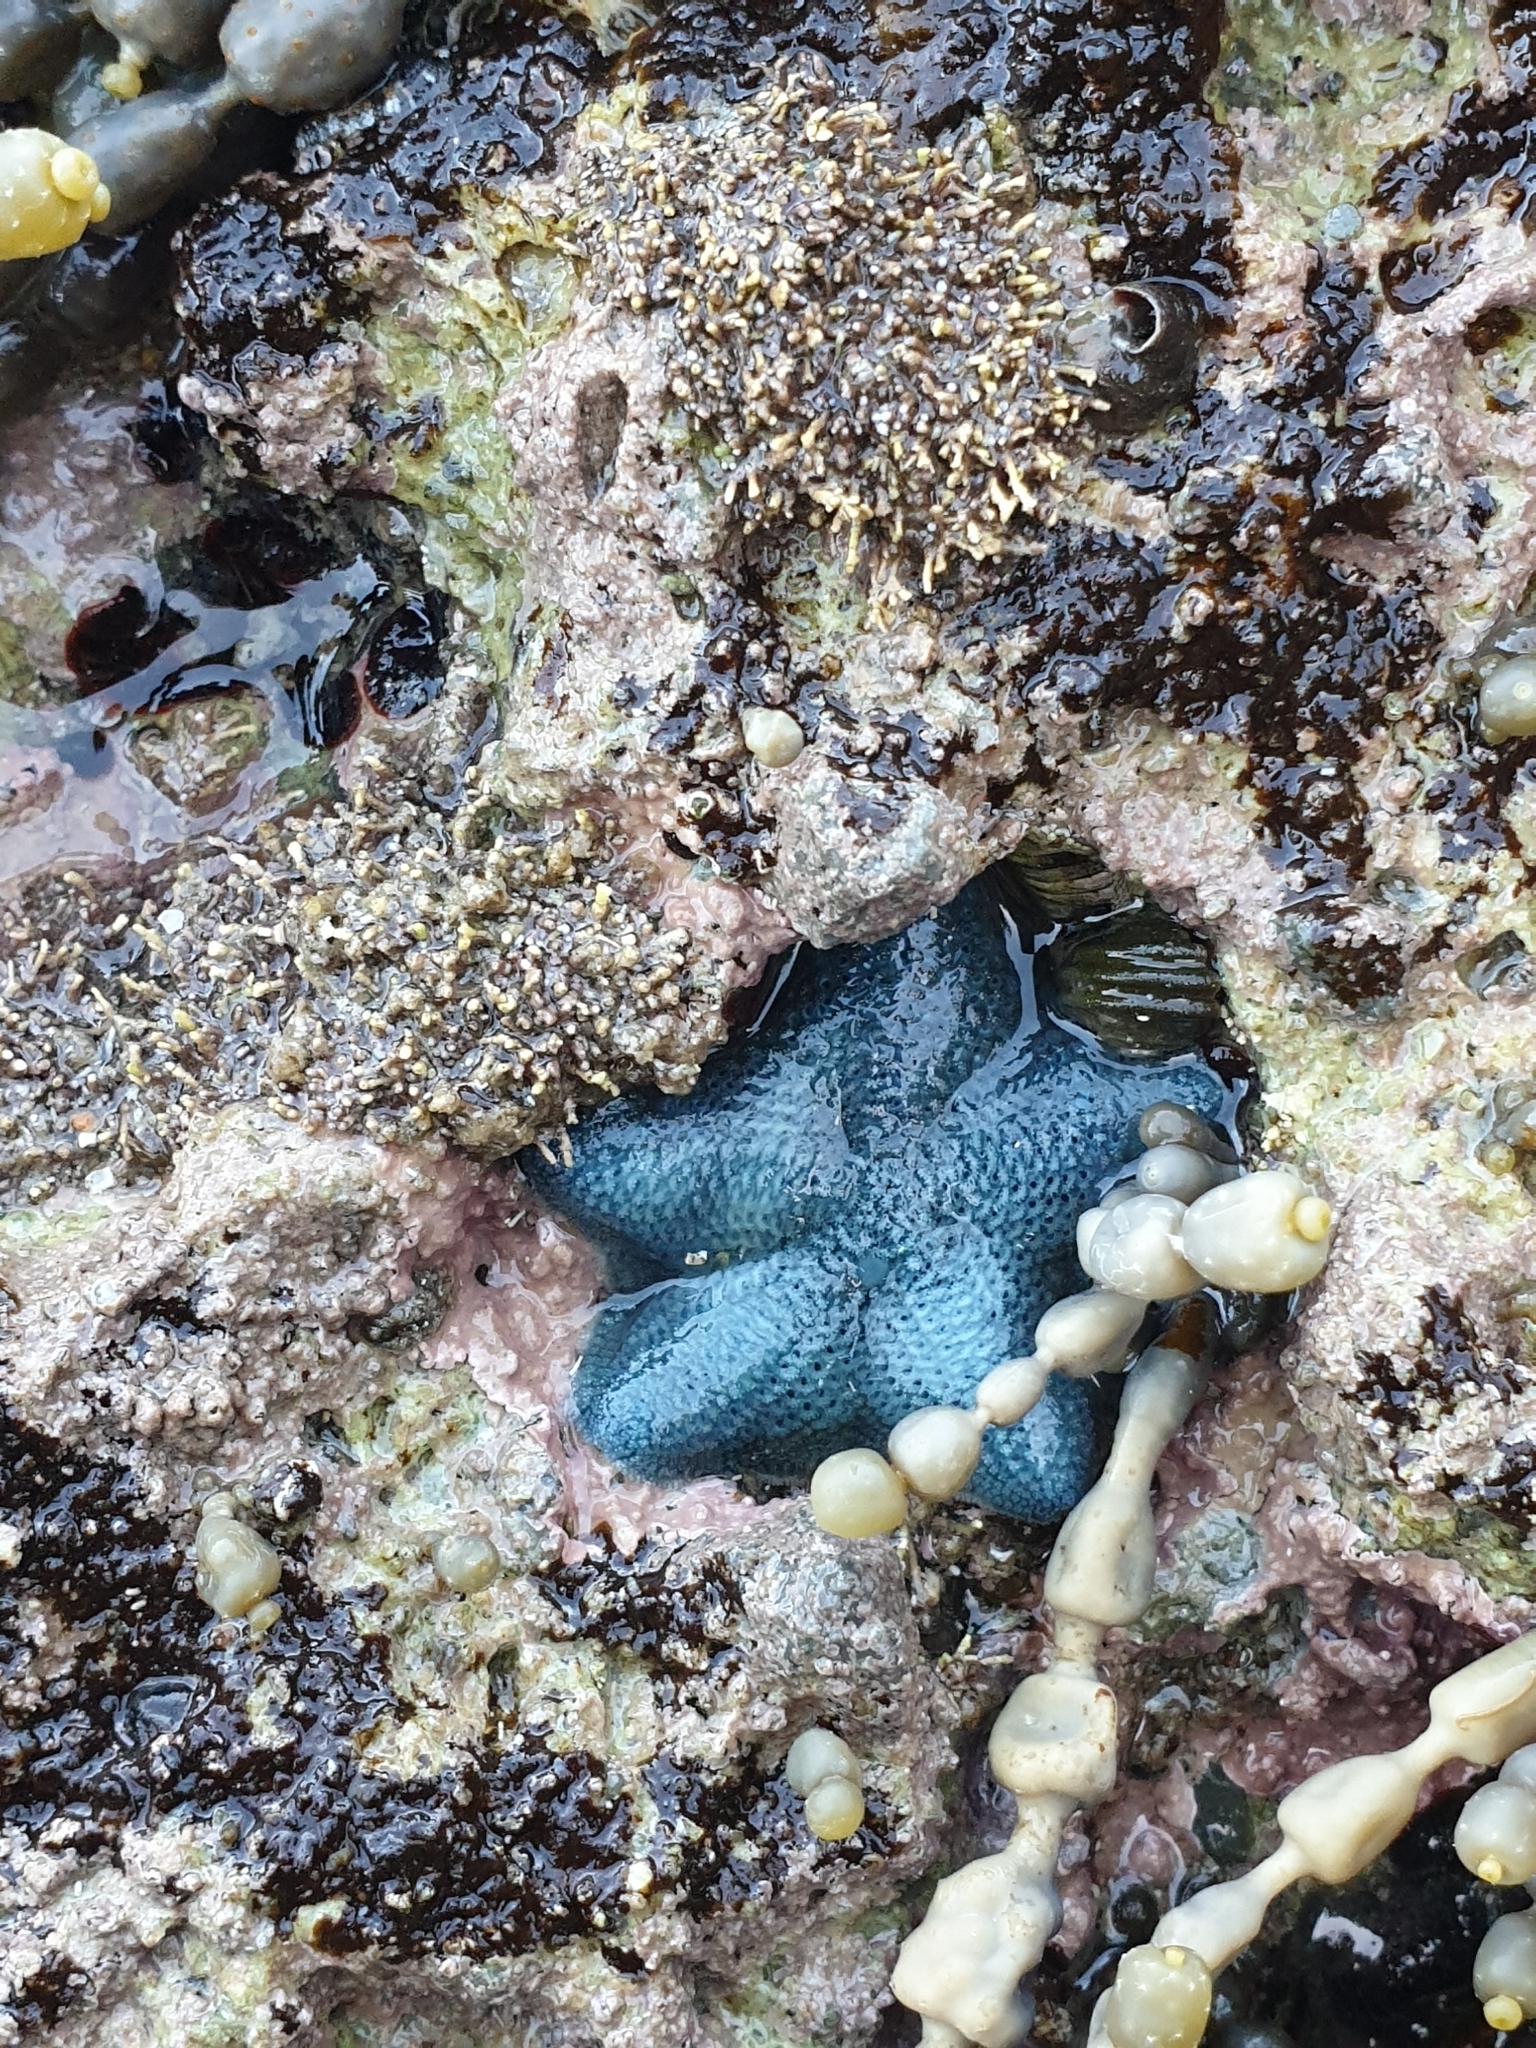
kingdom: Animalia
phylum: Echinodermata
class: Asteroidea
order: Valvatida
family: Asterinidae
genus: Patiriella
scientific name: Patiriella regularis
